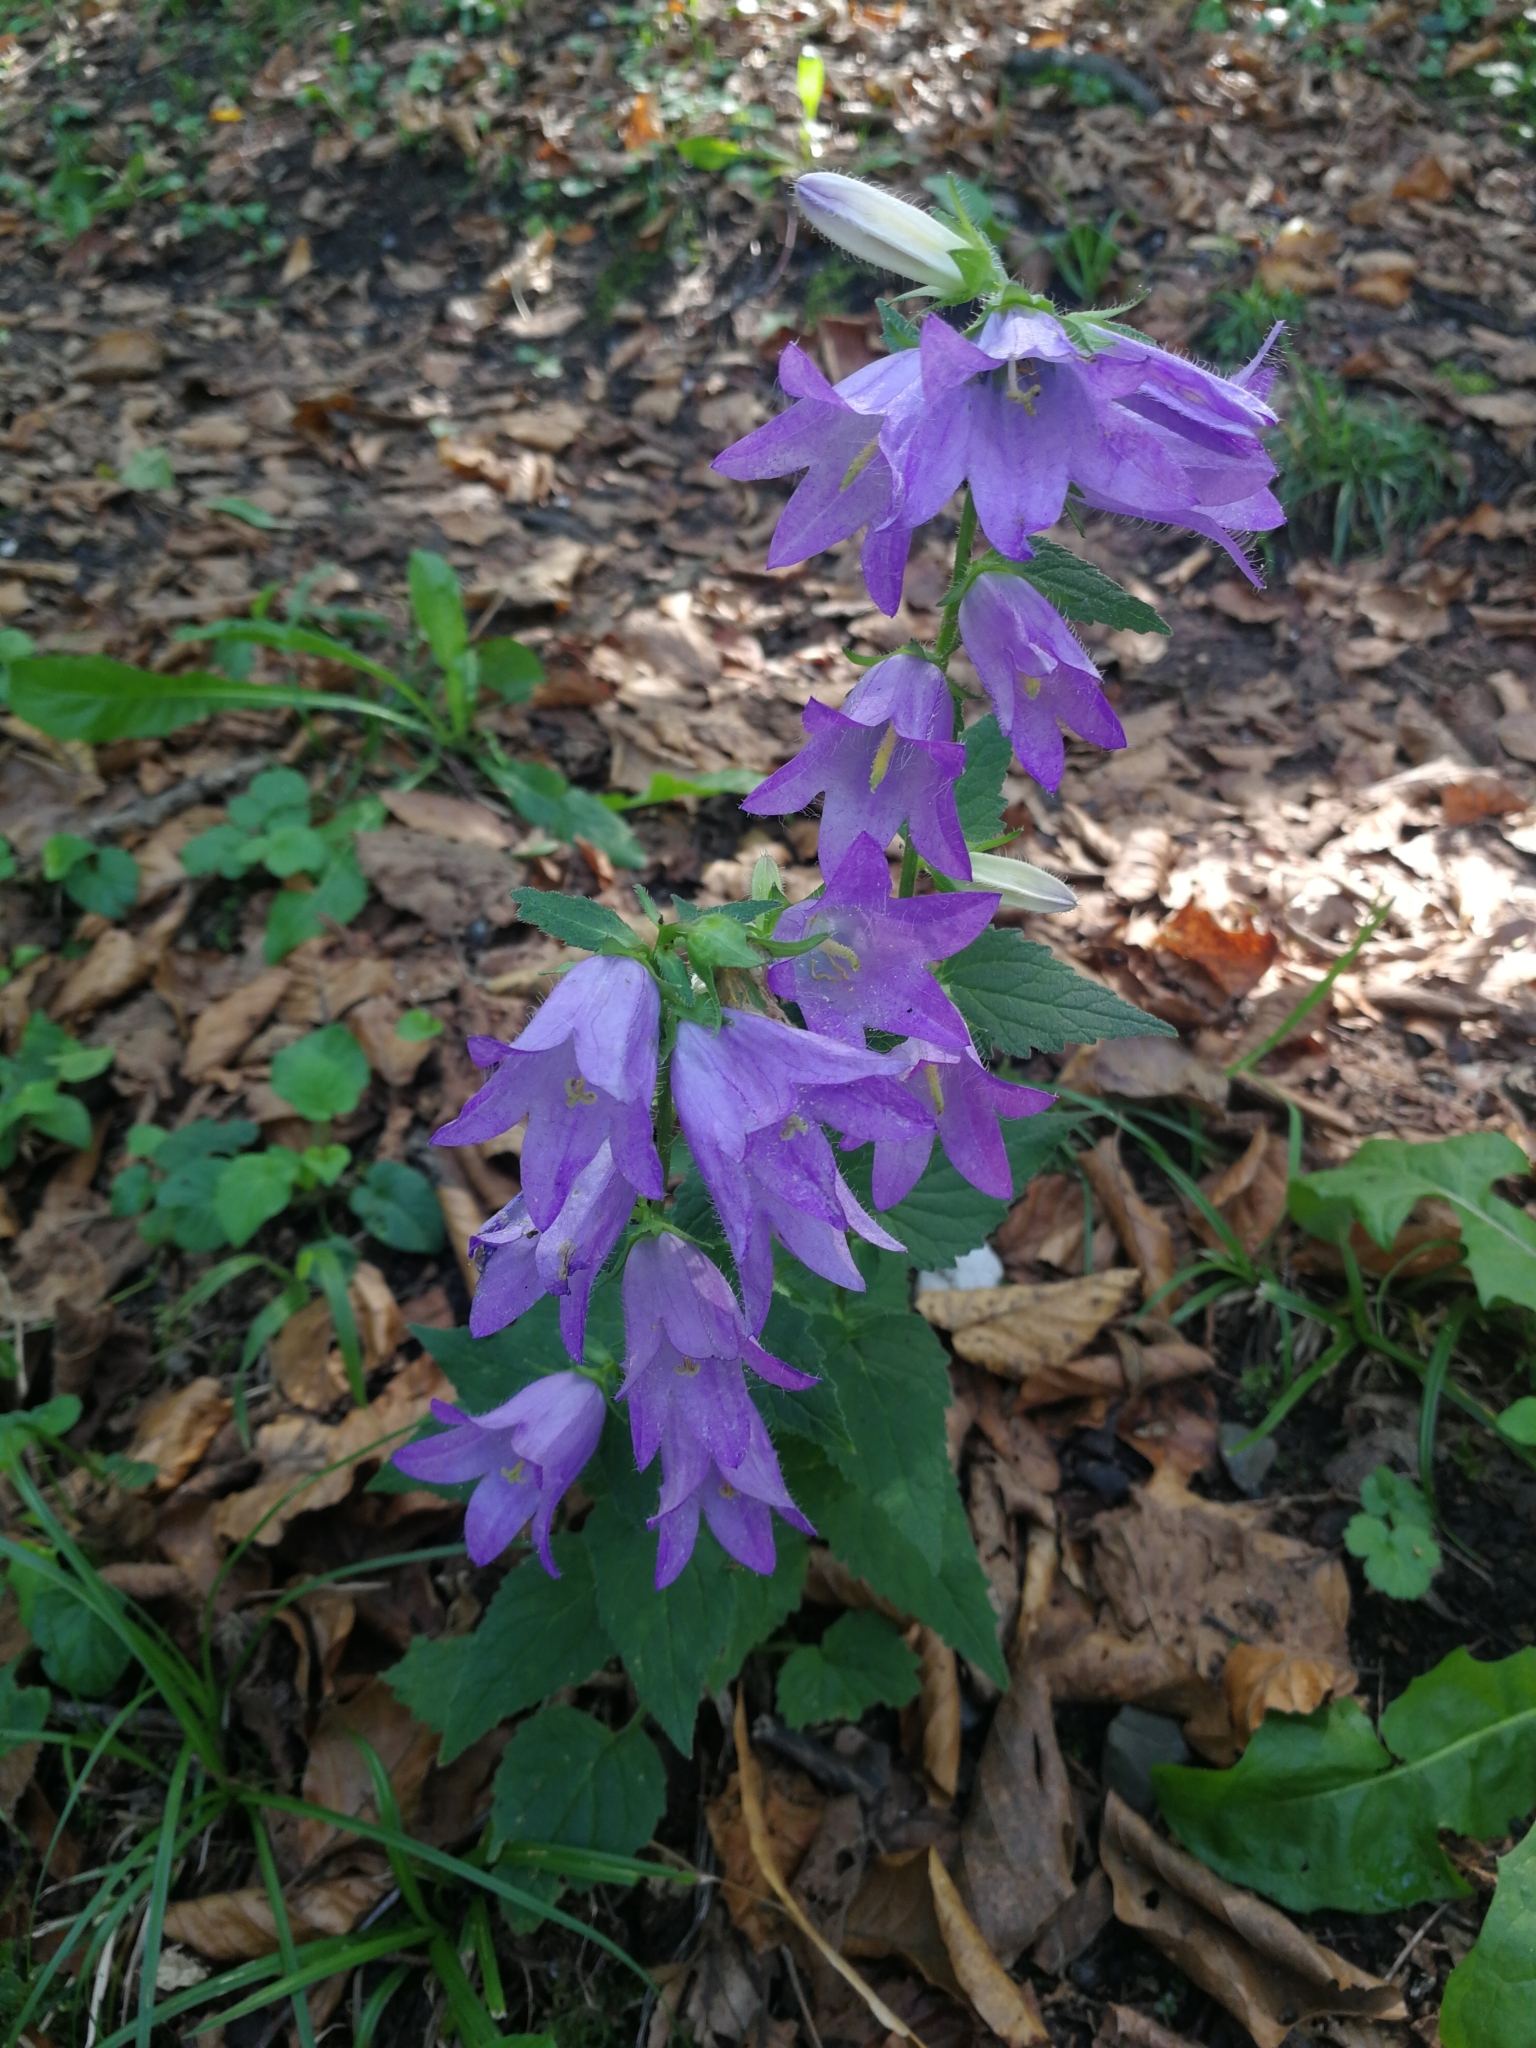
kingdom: Plantae
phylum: Tracheophyta
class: Magnoliopsida
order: Asterales
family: Campanulaceae
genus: Campanula
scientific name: Campanula trachelium
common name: Nettle-leaved bellflower
